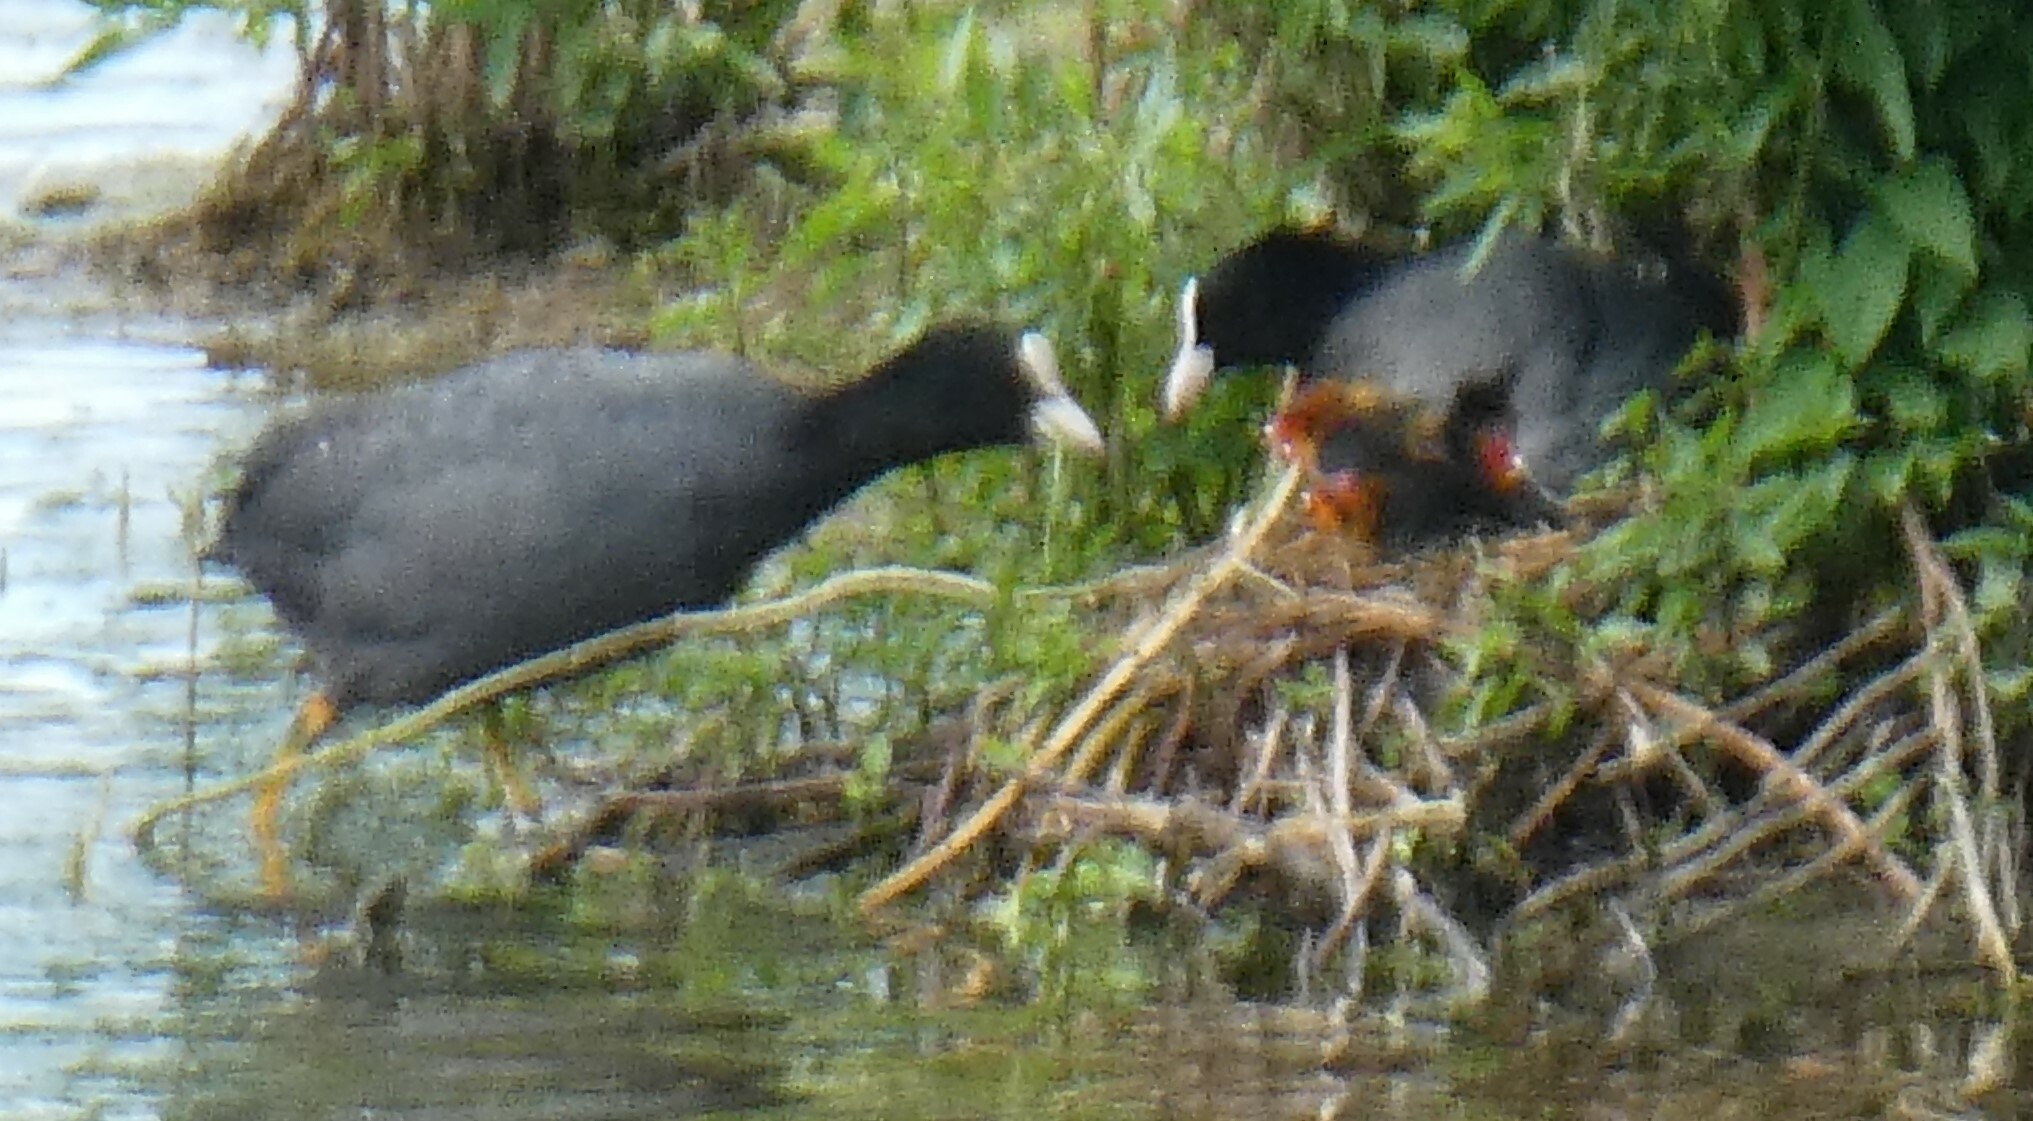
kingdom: Animalia
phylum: Chordata
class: Aves
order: Gruiformes
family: Rallidae
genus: Fulica
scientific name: Fulica atra
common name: Eurasian coot
